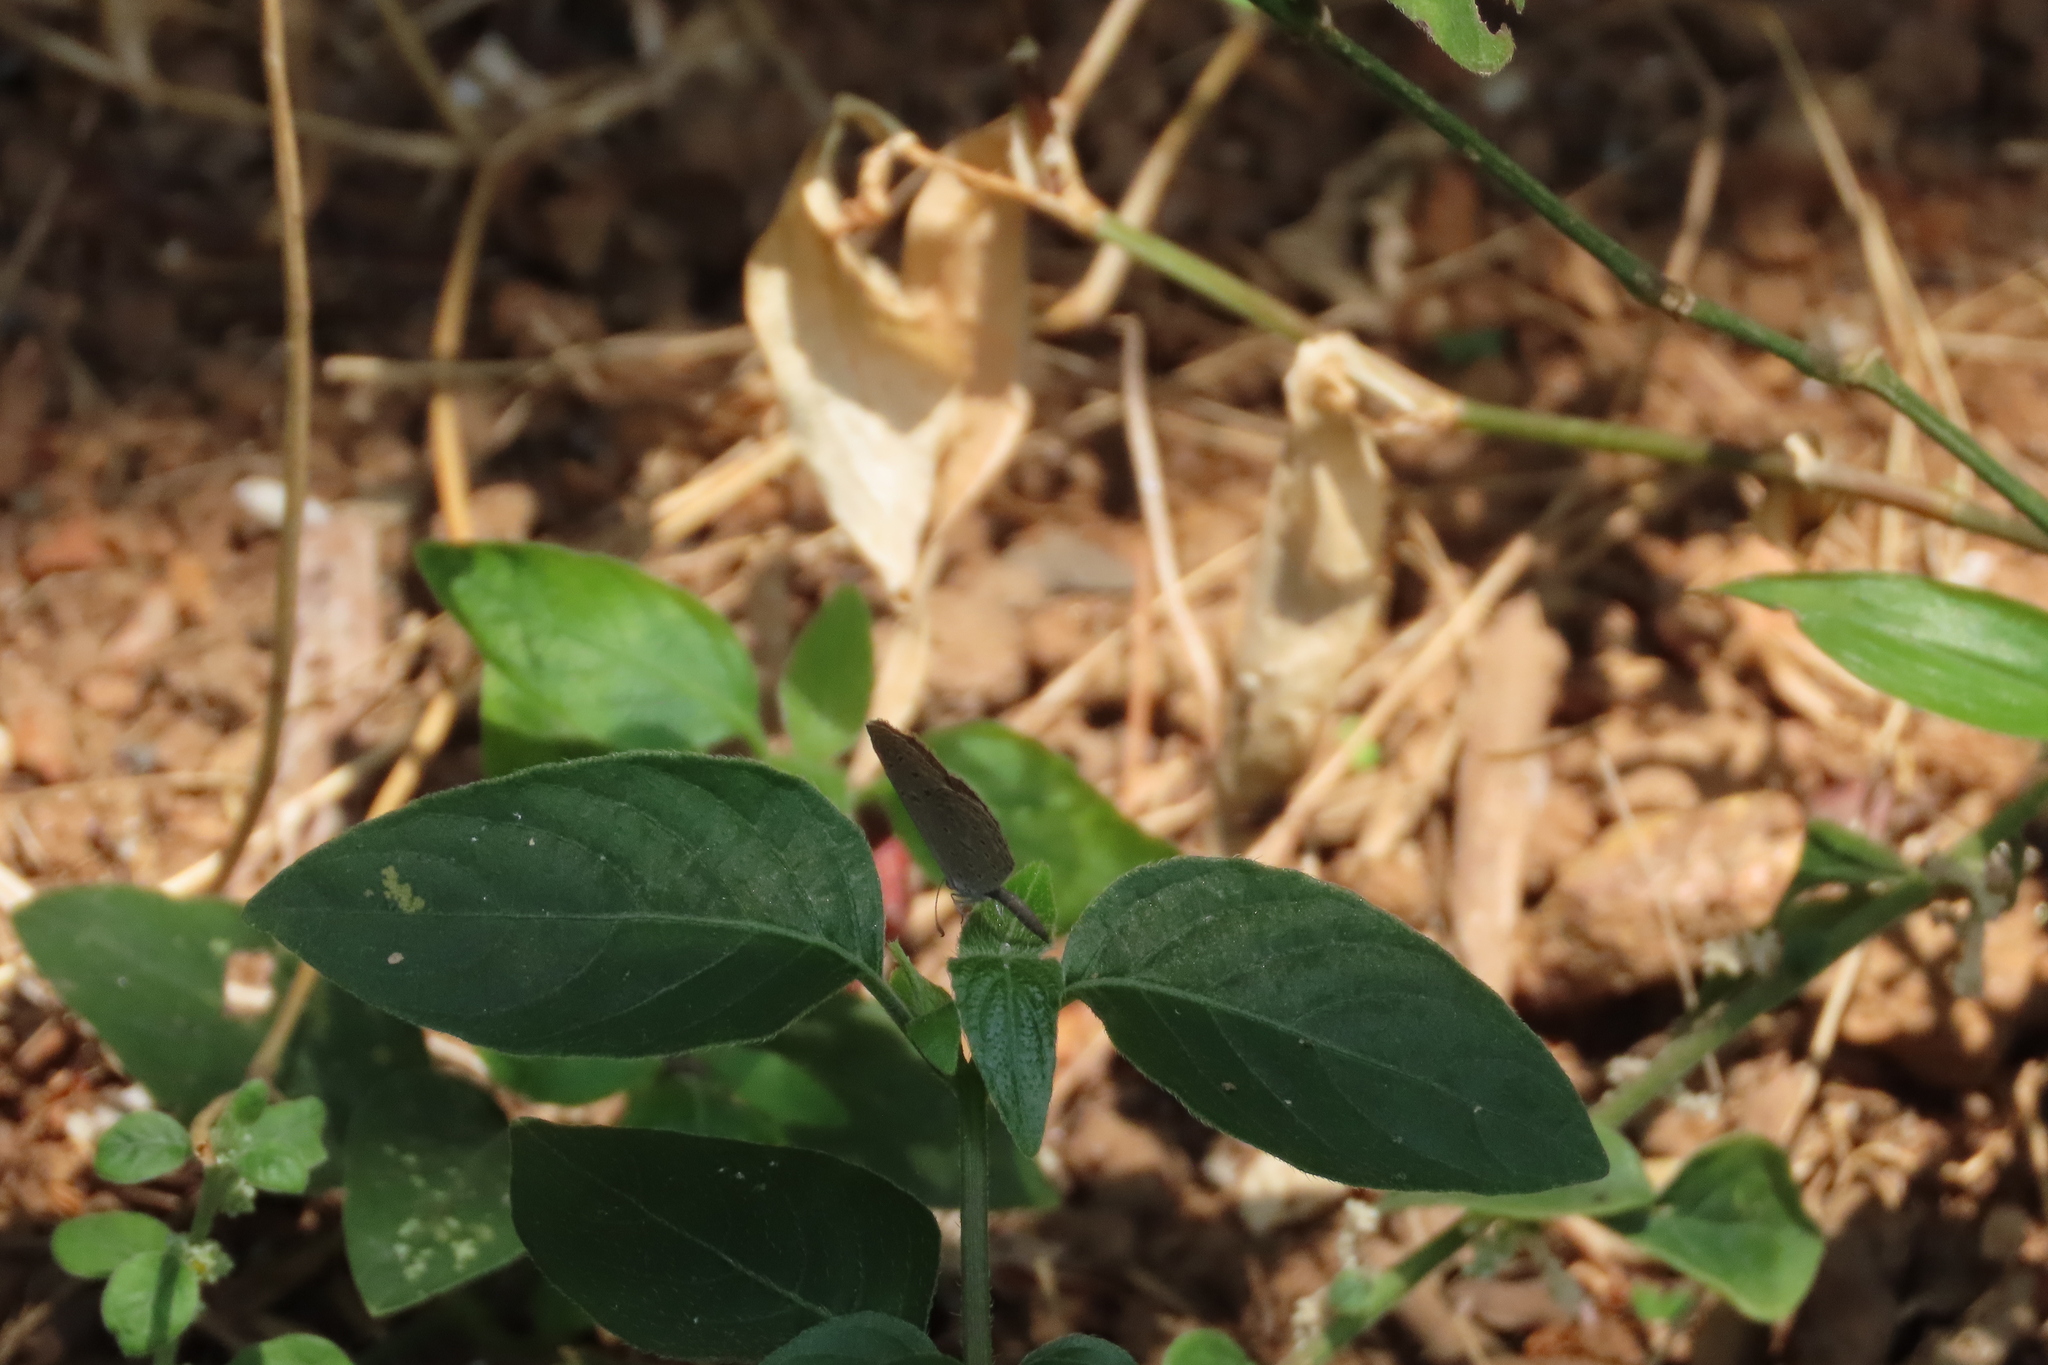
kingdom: Animalia
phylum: Arthropoda
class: Insecta
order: Lepidoptera
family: Lycaenidae
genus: Zizula
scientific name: Zizula hylax
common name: Gaika blue
